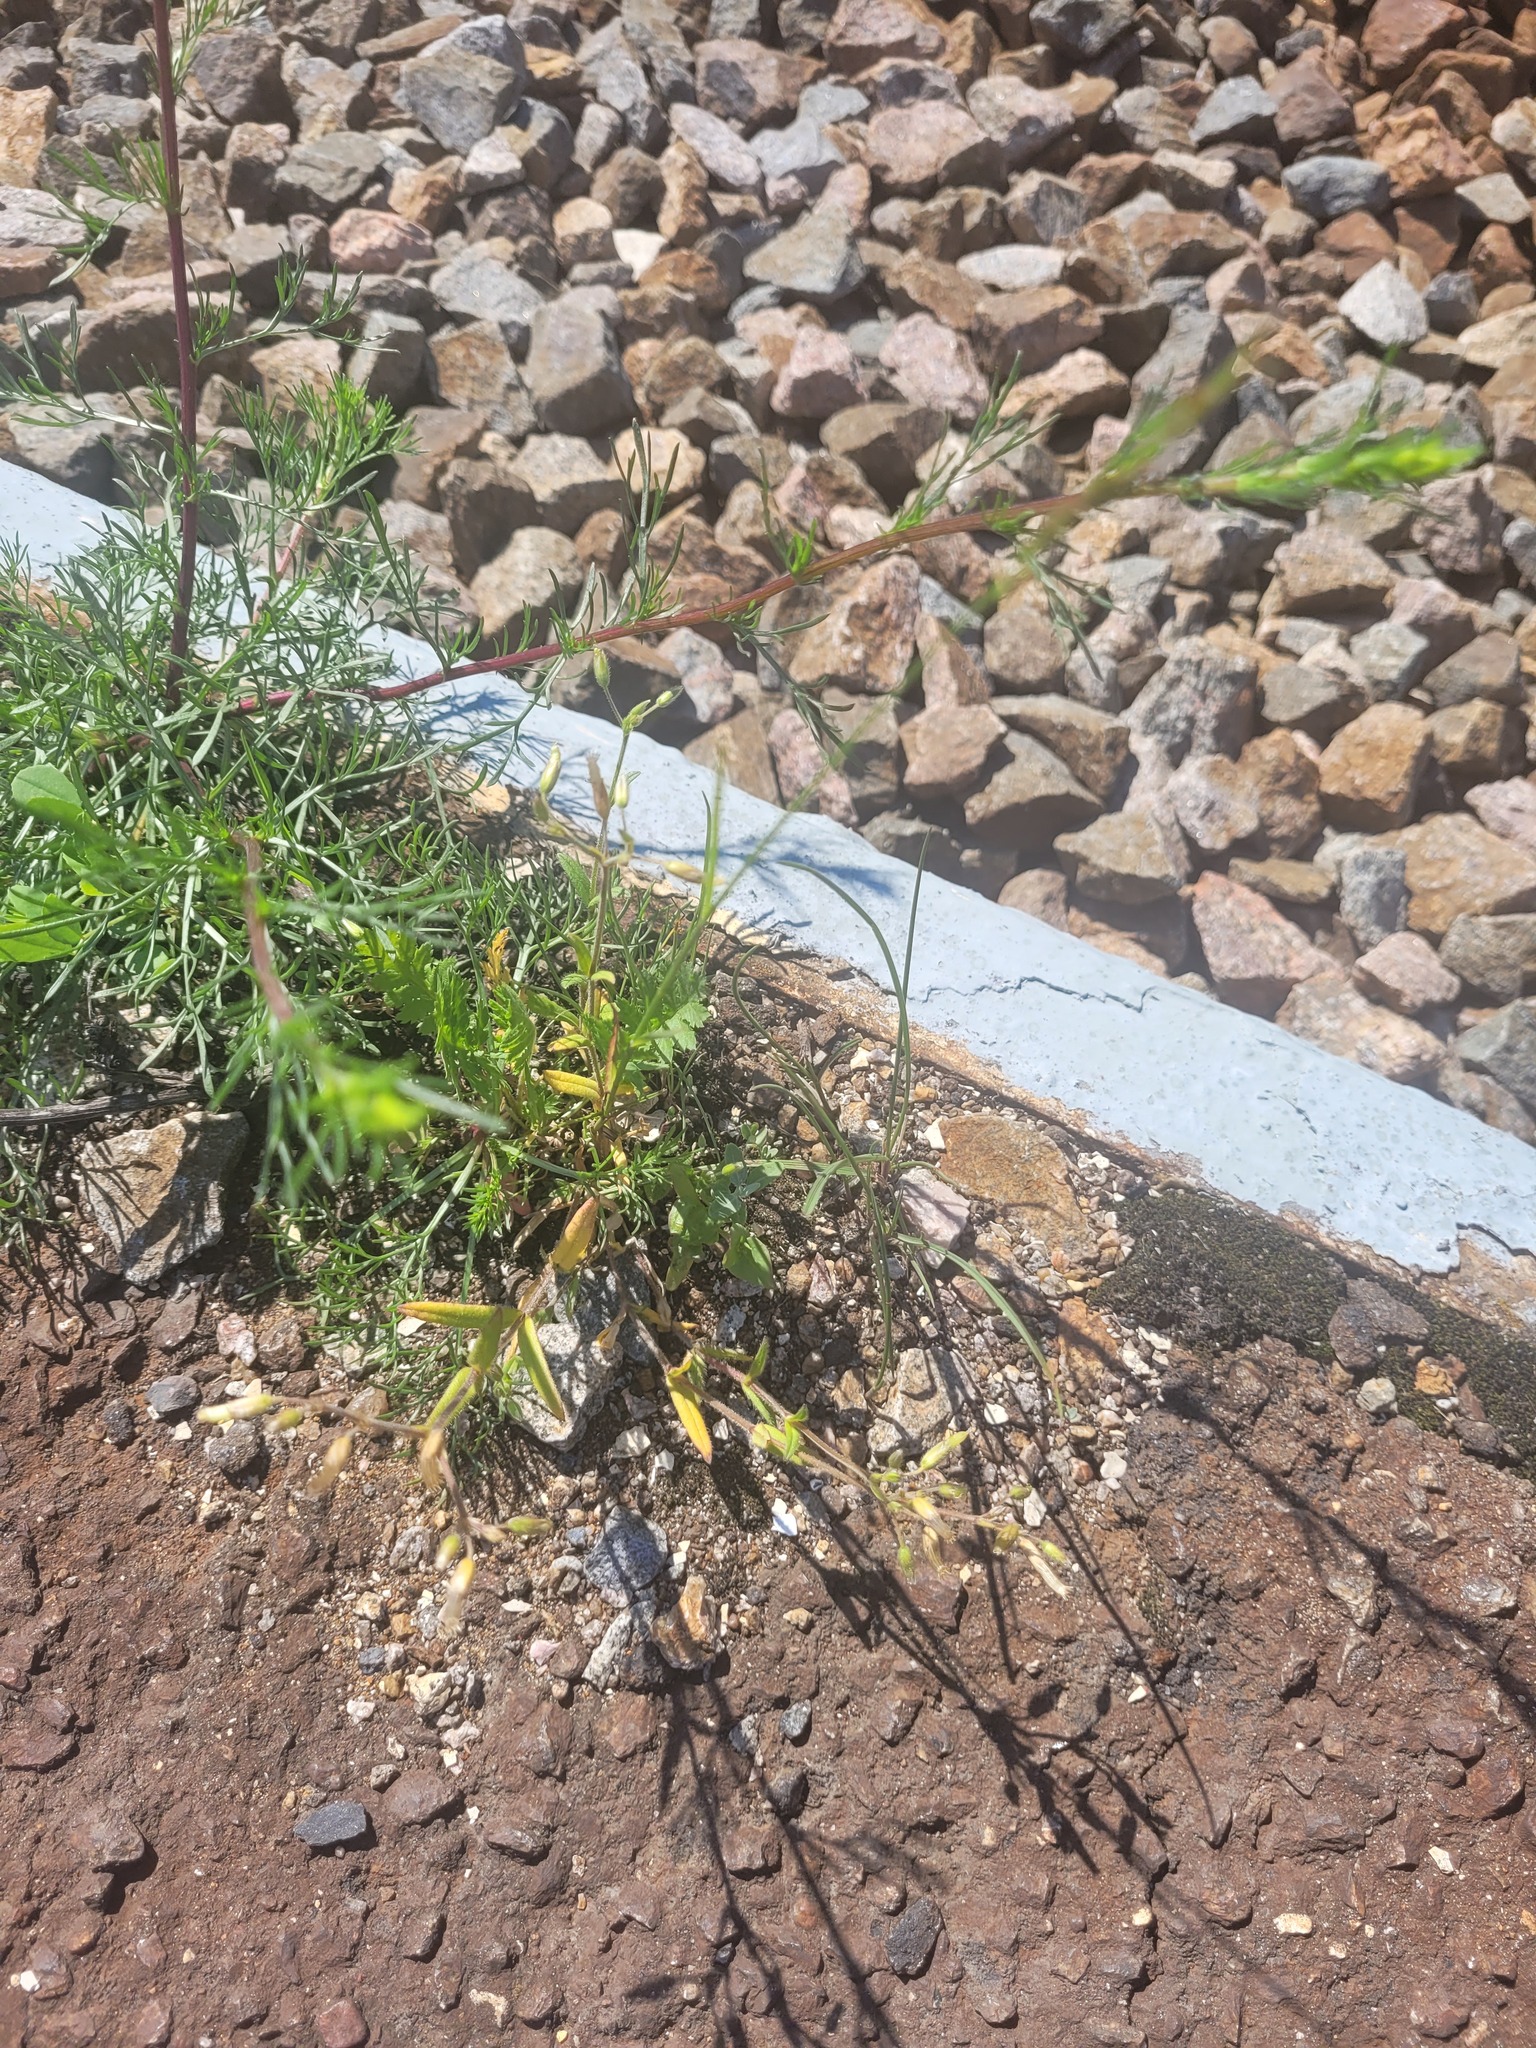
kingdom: Plantae
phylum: Tracheophyta
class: Magnoliopsida
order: Caryophyllales
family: Caryophyllaceae
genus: Cerastium
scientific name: Cerastium holosteoides
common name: Big chickweed
